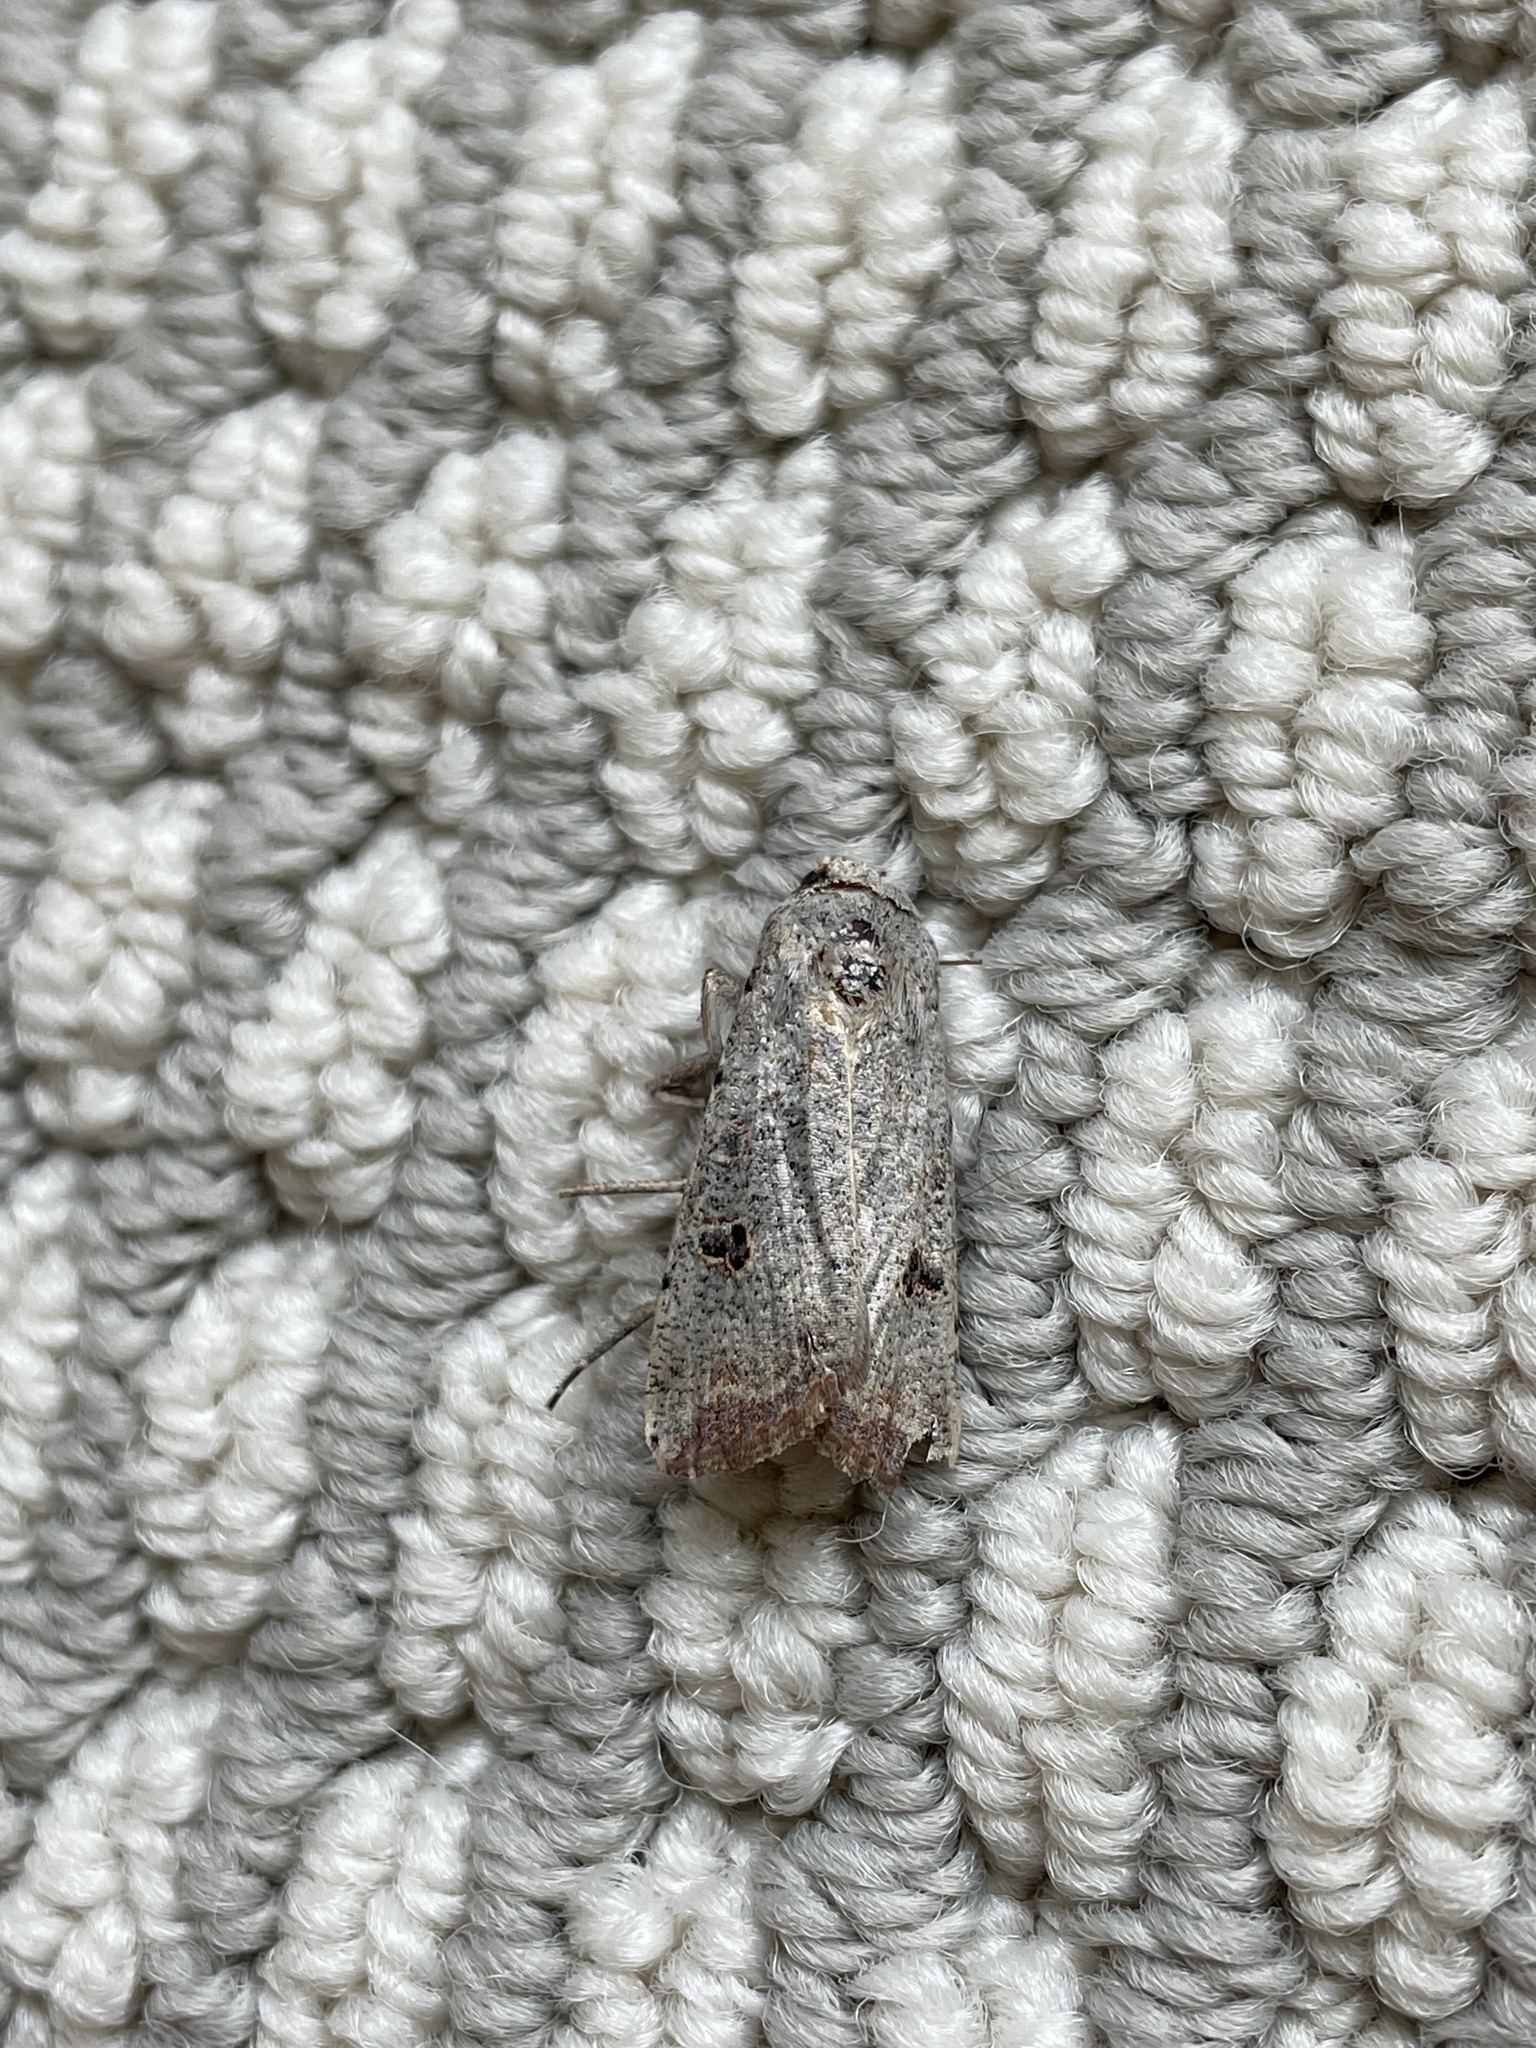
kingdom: Animalia
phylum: Arthropoda
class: Insecta
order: Lepidoptera
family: Noctuidae
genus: Anicla
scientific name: Anicla infecta
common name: Green cutworm
